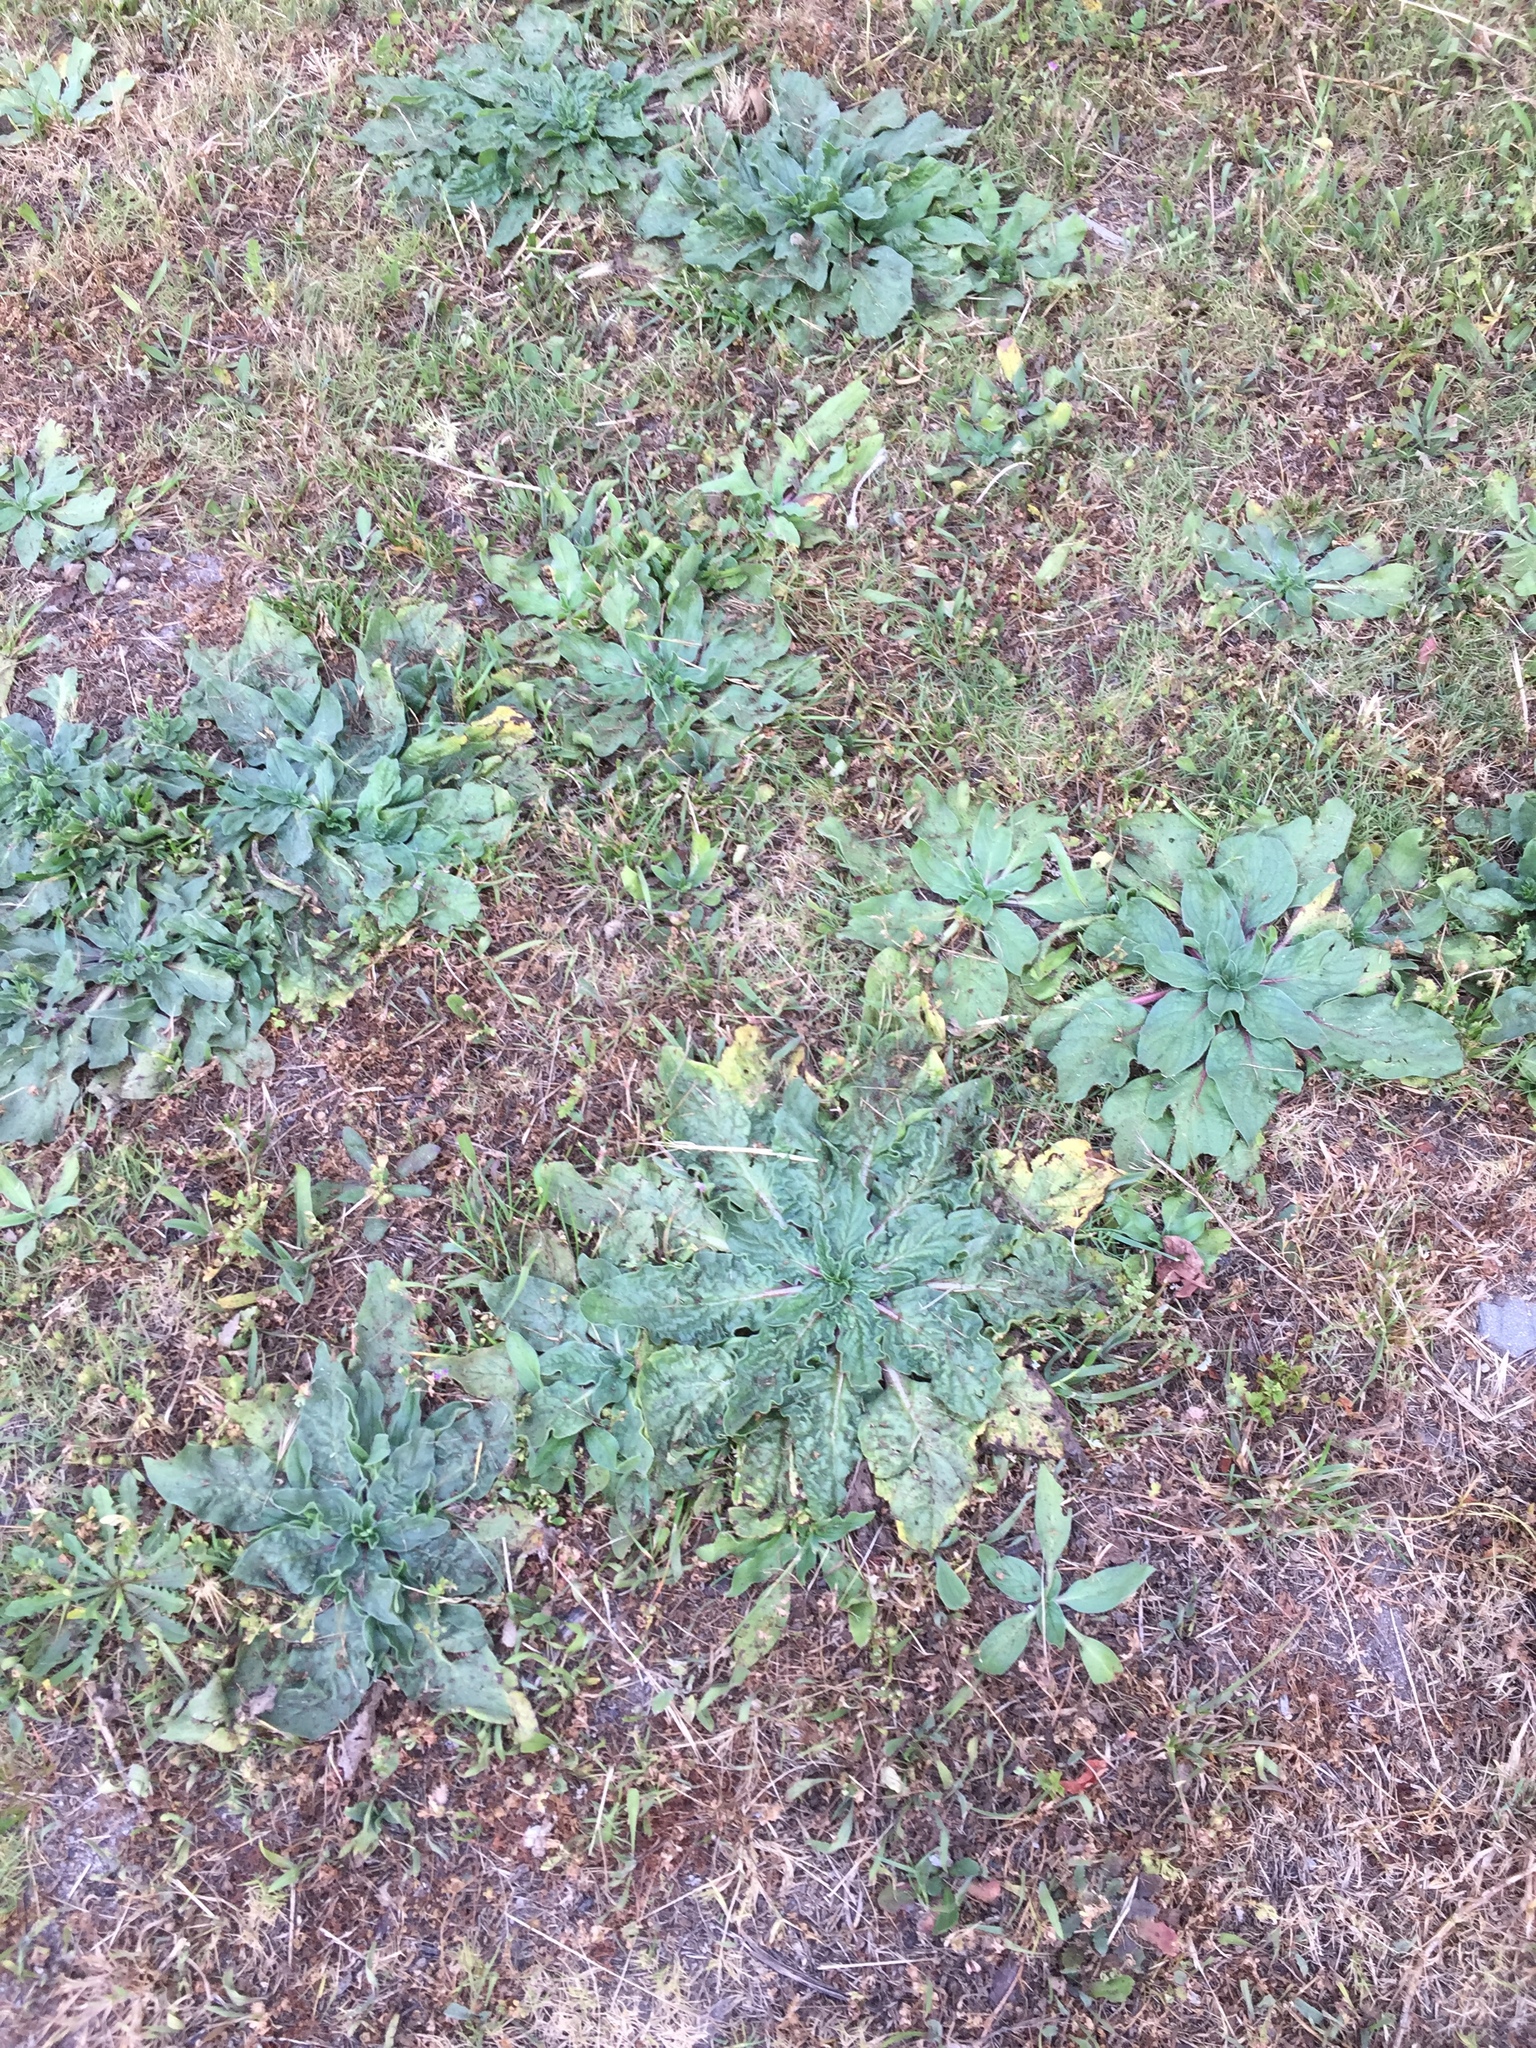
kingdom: Plantae
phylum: Tracheophyta
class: Magnoliopsida
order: Boraginales
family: Boraginaceae
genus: Echium
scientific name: Echium plantagineum
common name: Purple viper's-bugloss
